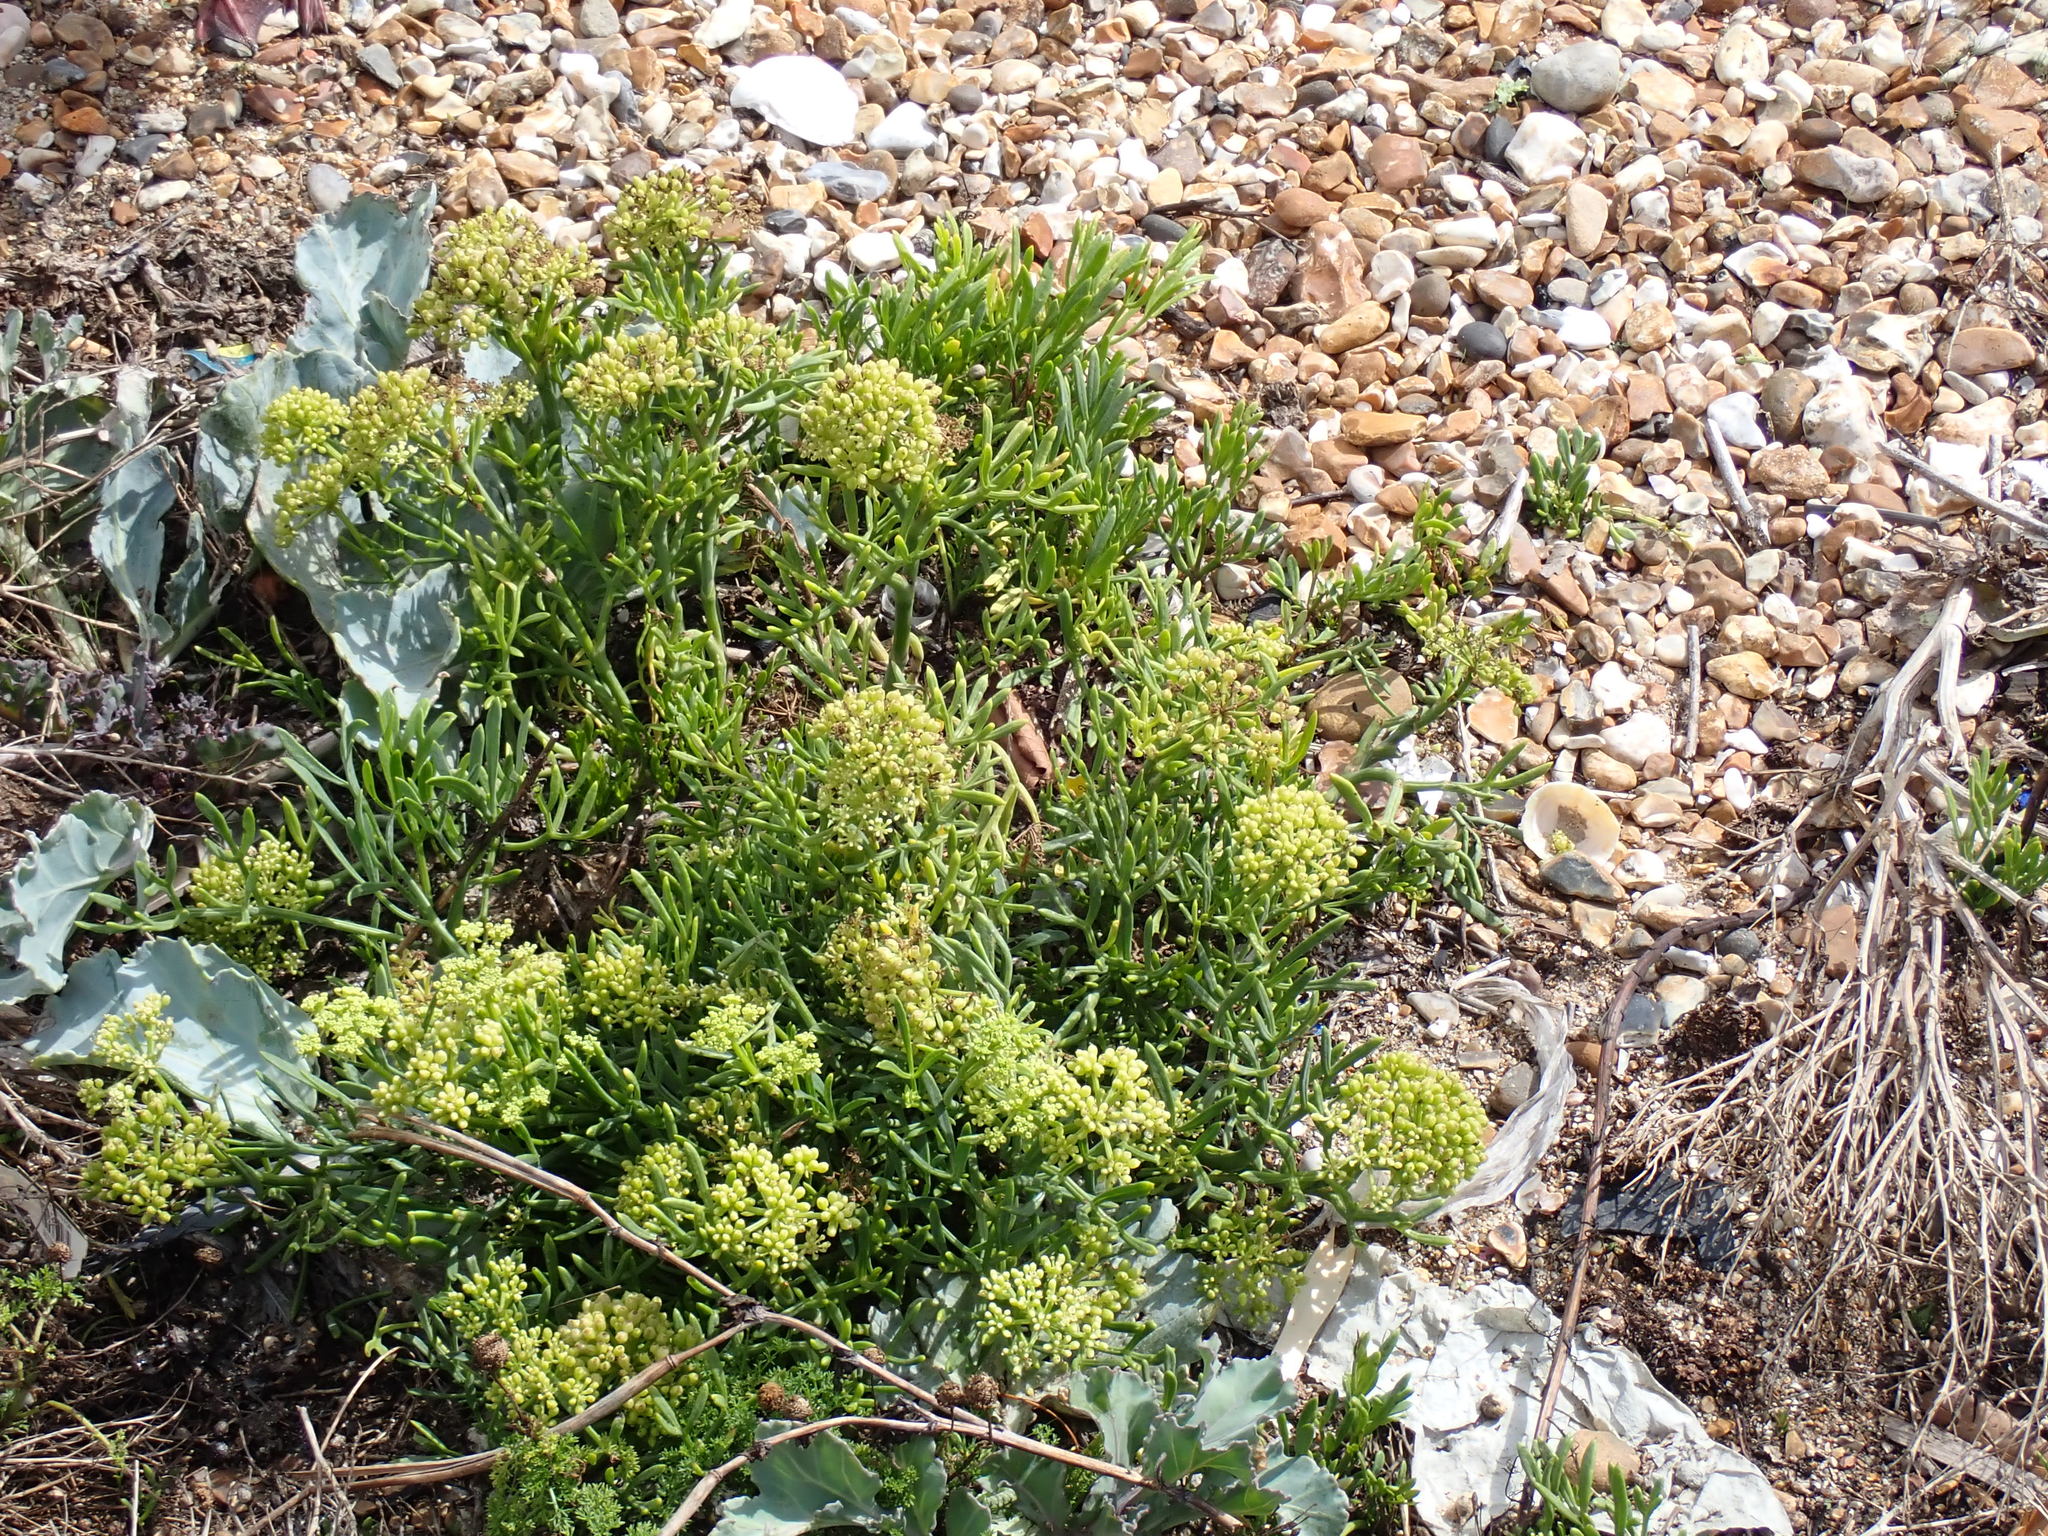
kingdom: Plantae
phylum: Tracheophyta
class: Magnoliopsida
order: Apiales
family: Apiaceae
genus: Crithmum
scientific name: Crithmum maritimum
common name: Rock samphire
